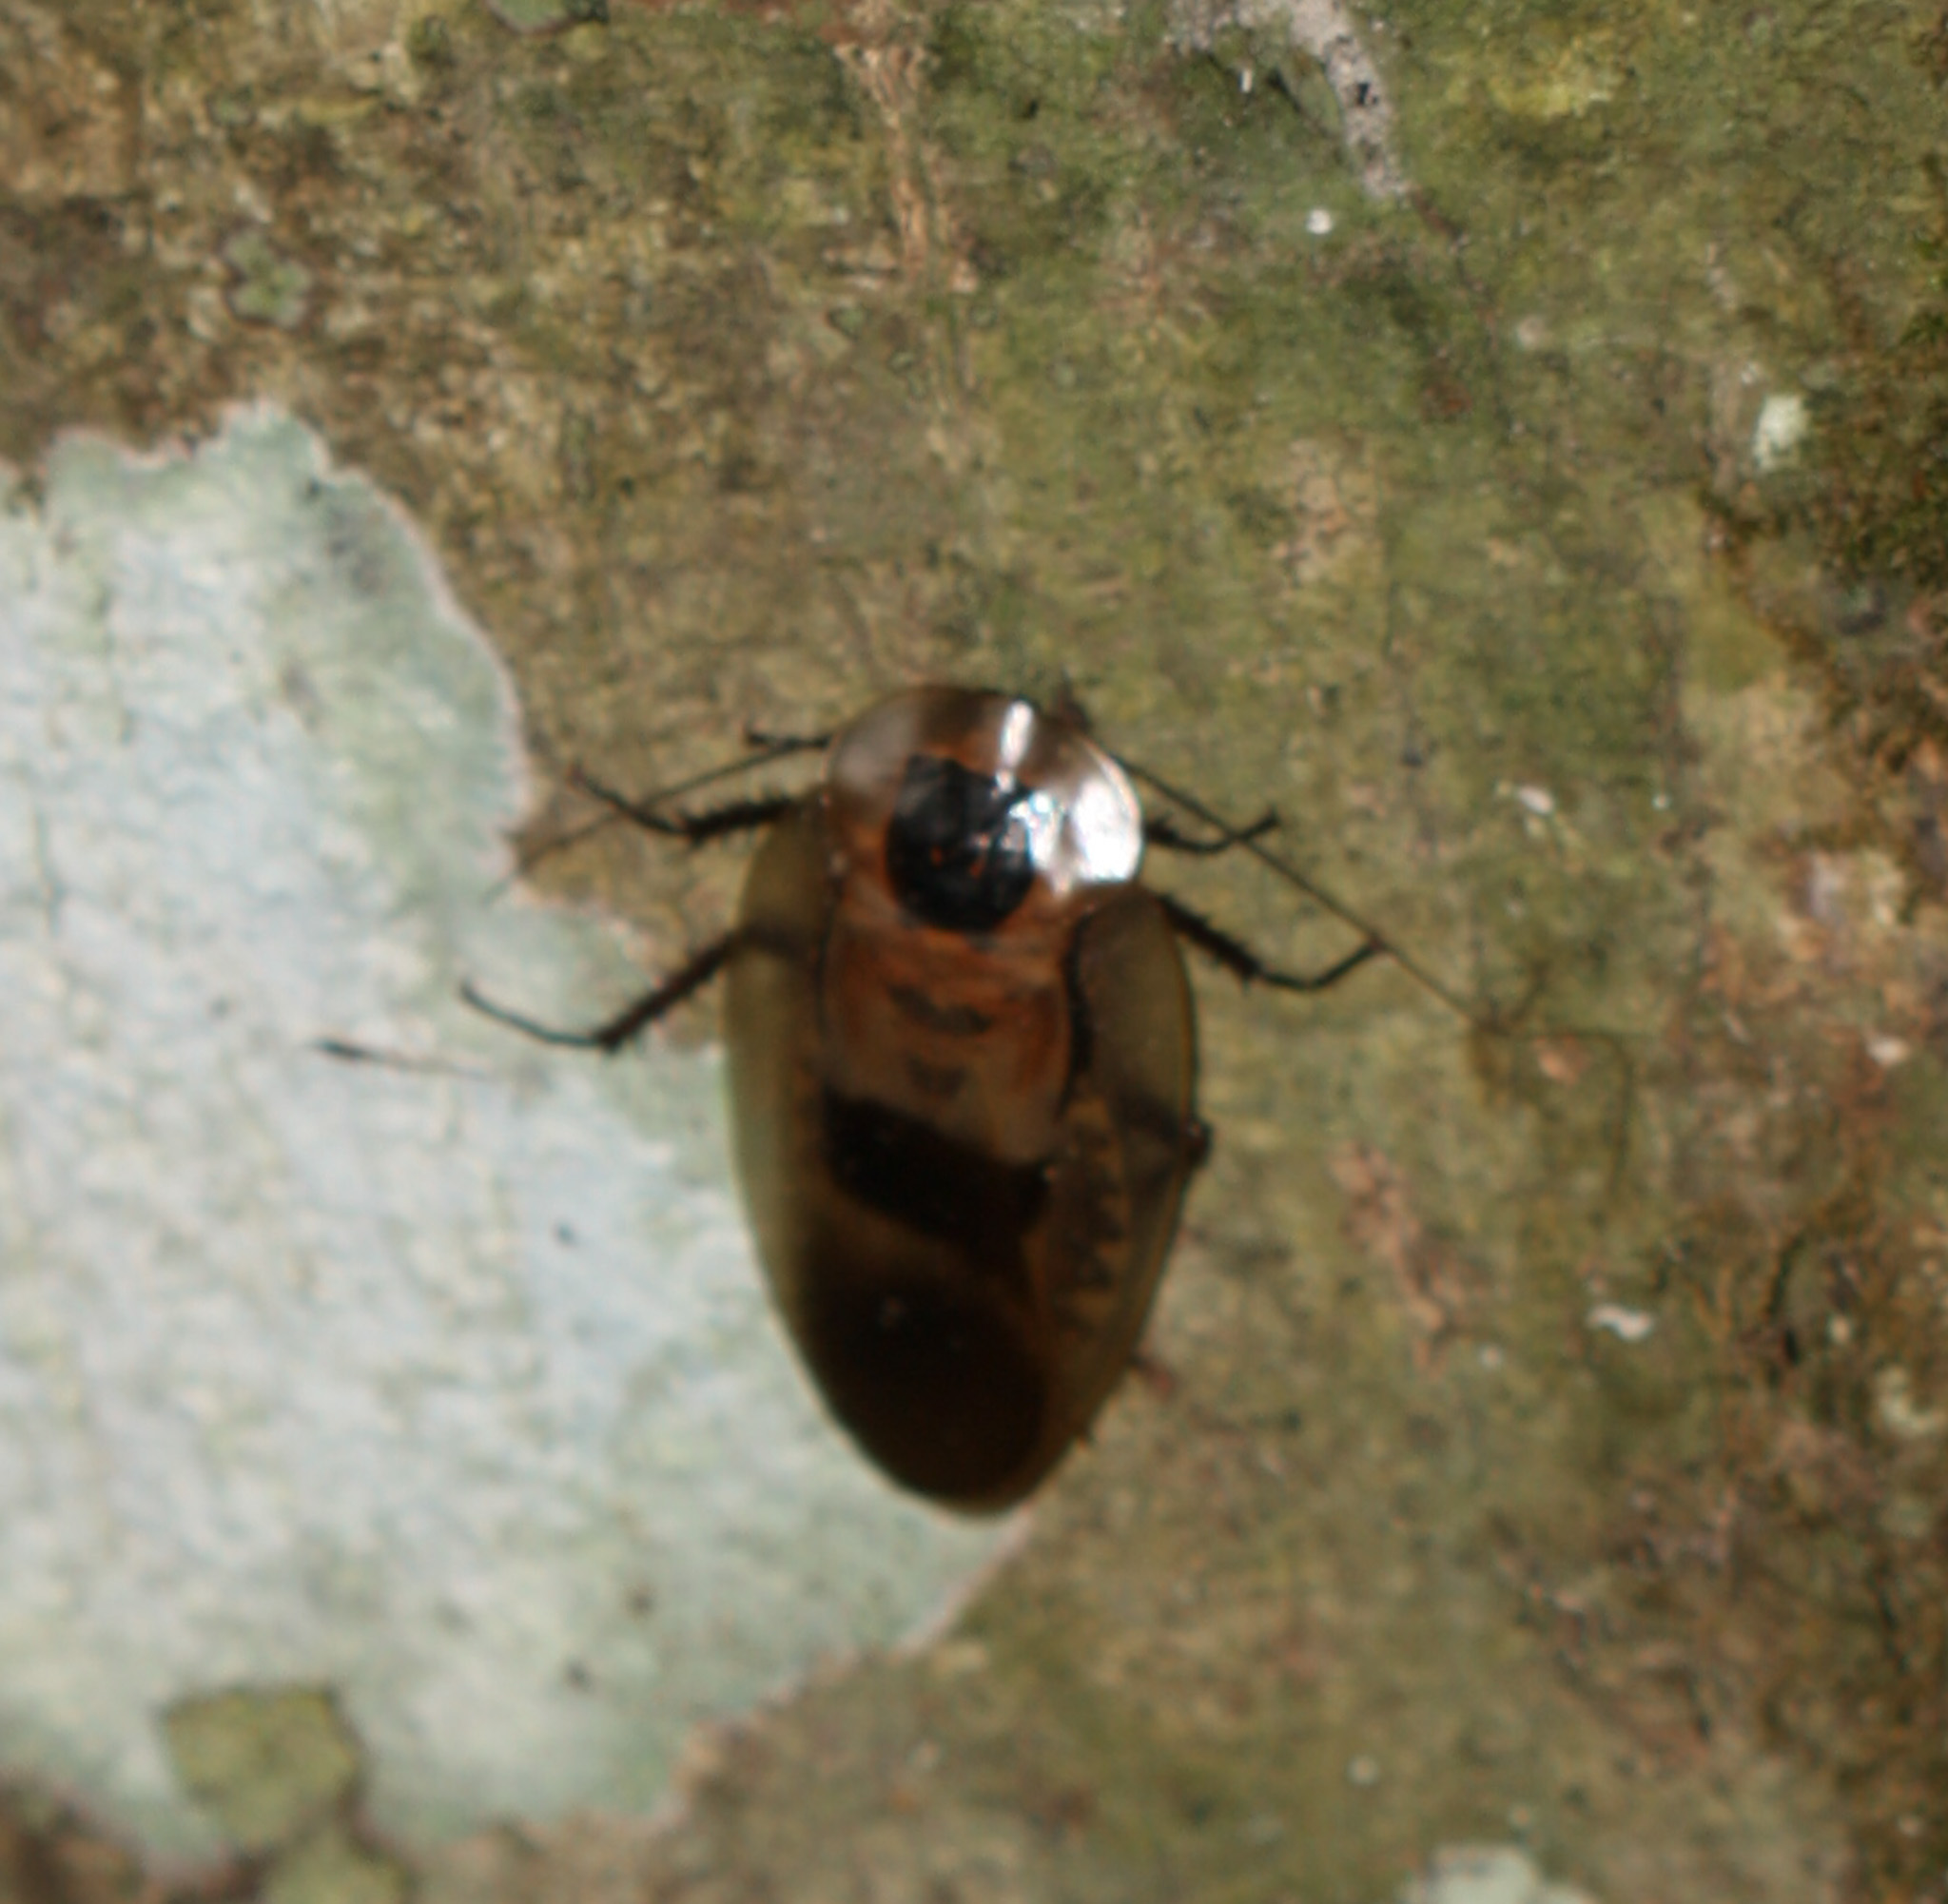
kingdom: Animalia
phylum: Arthropoda
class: Insecta
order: Blattodea
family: Blaberidae
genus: Blaberus
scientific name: Blaberus giganteus
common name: Giant cave cockroach
